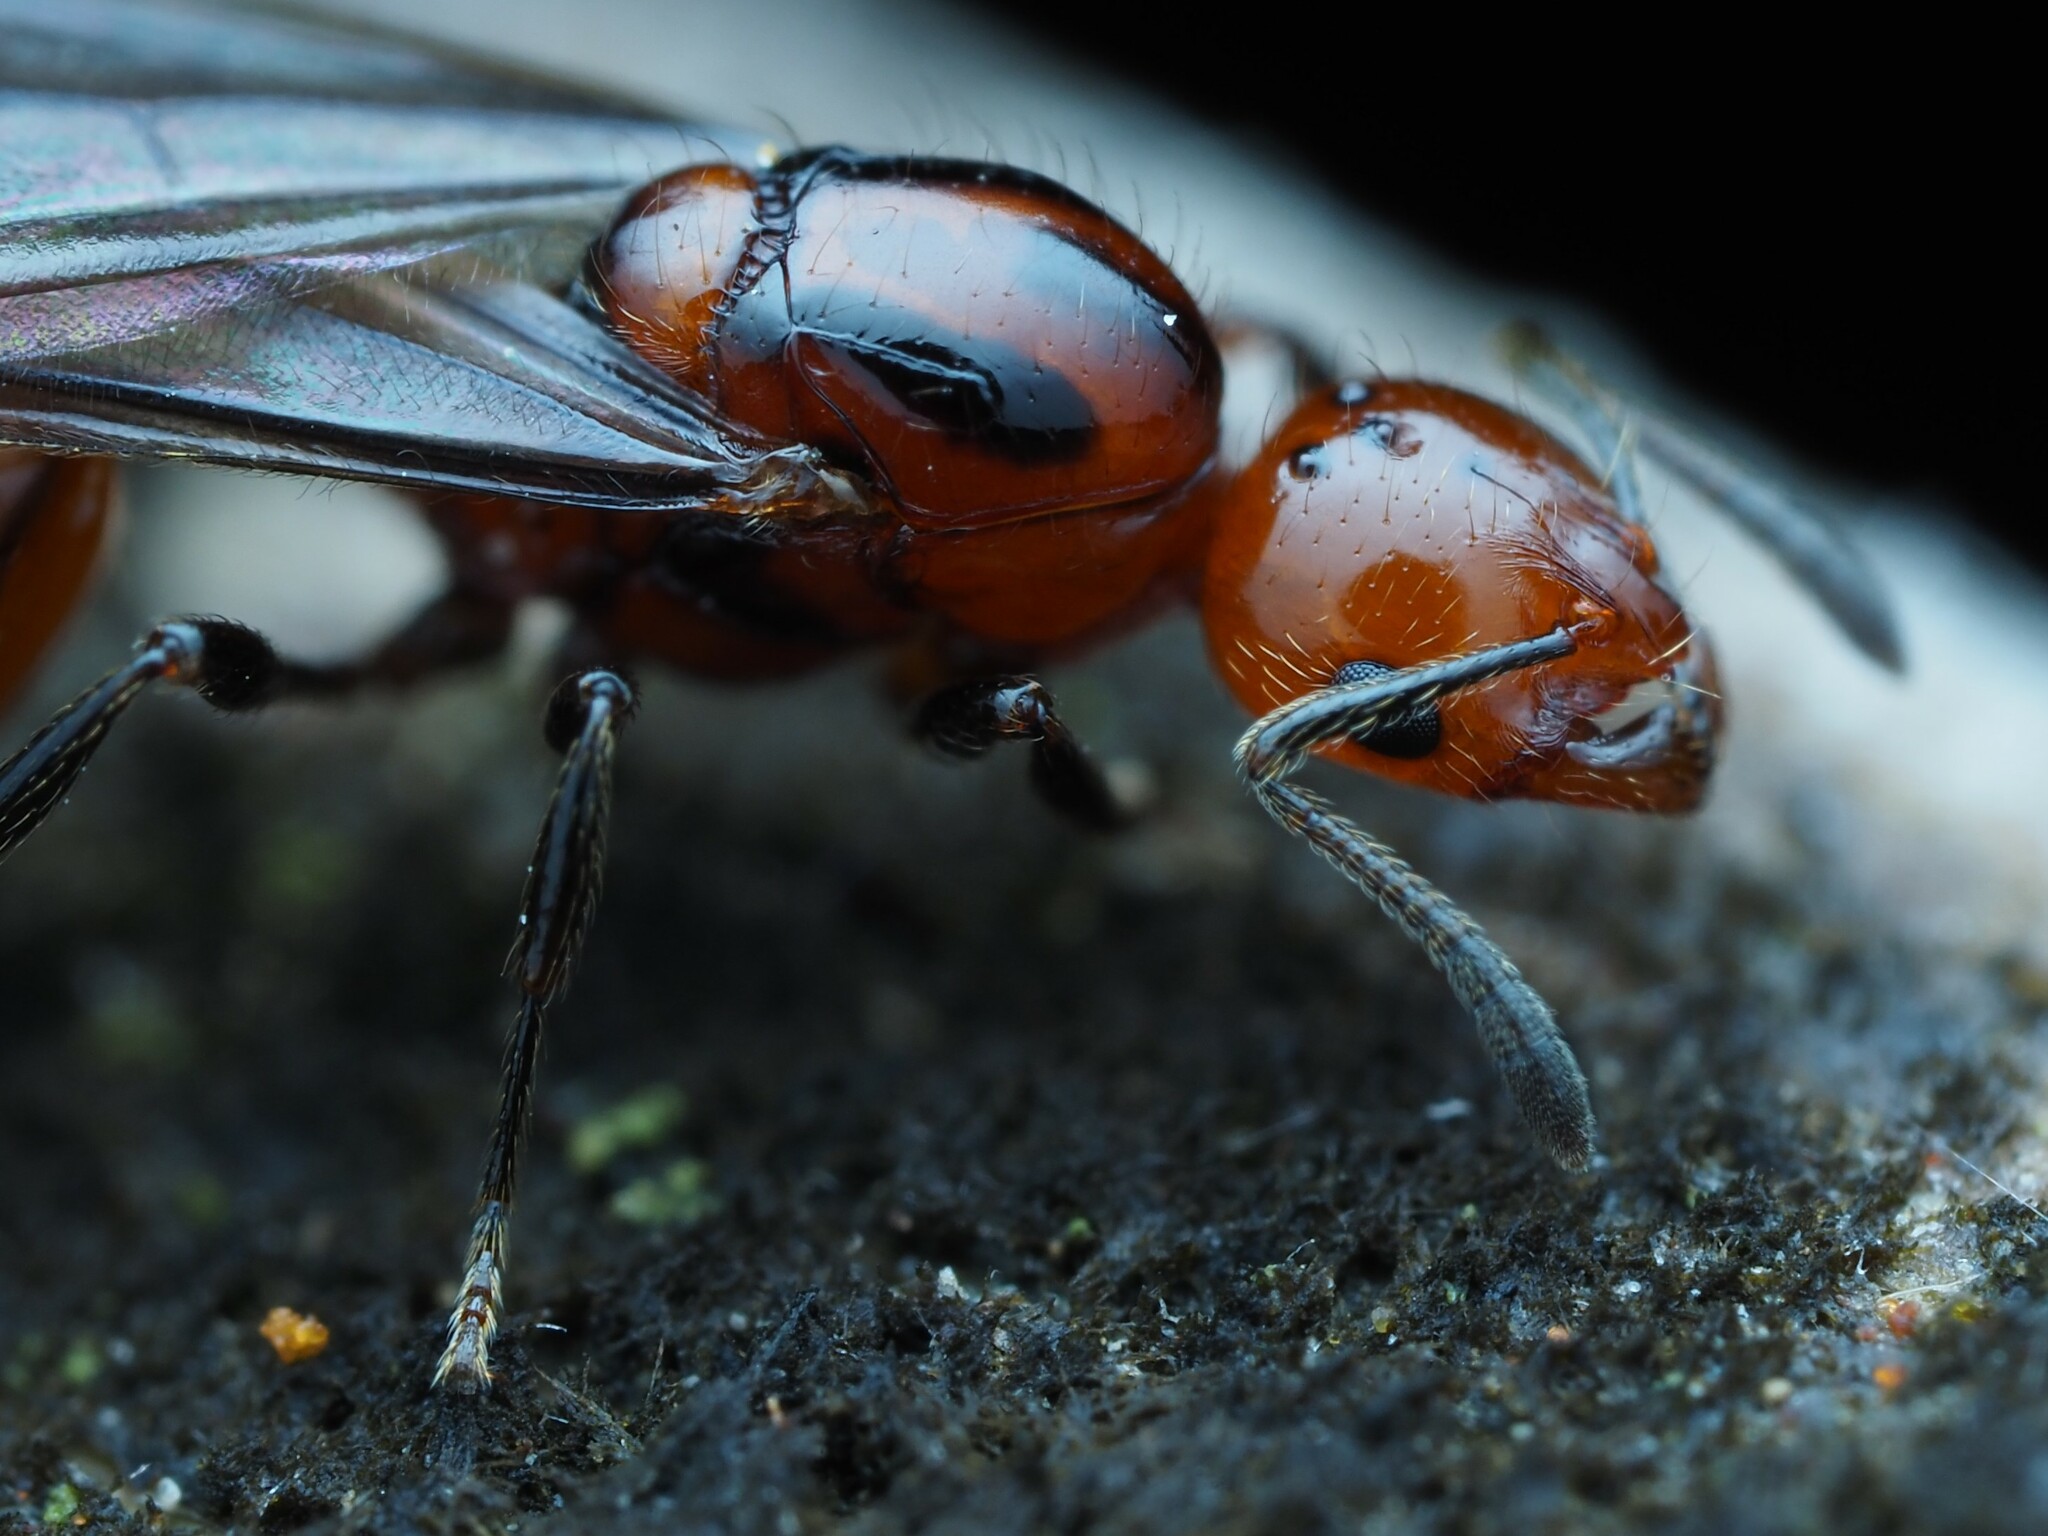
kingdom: Animalia
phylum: Arthropoda
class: Insecta
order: Hymenoptera
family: Formicidae
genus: Monomorium
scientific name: Monomorium antarcticum
